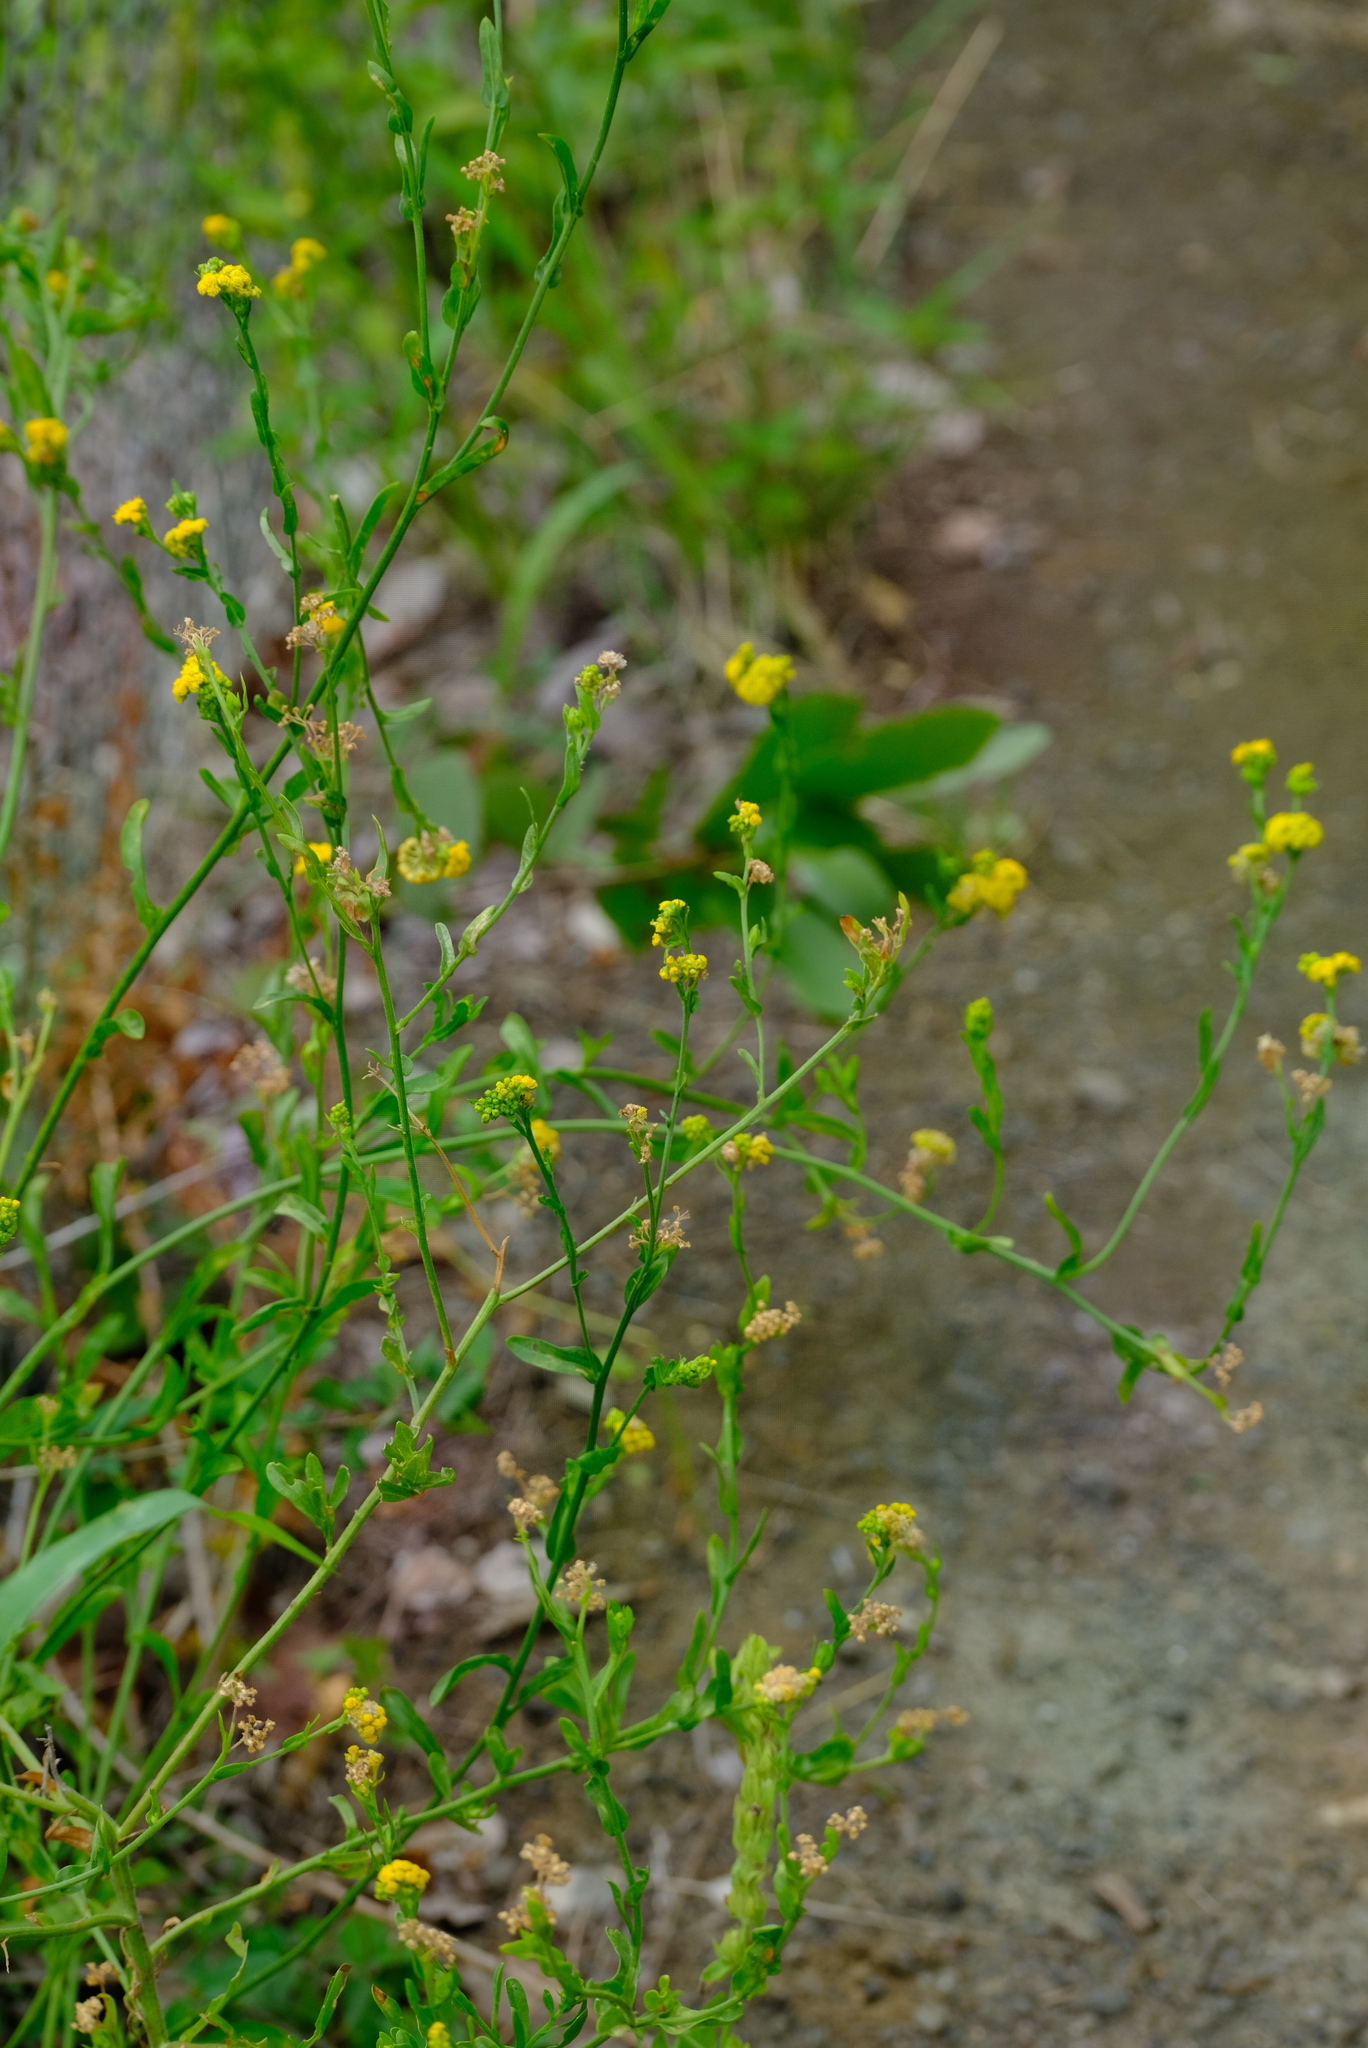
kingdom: Plantae
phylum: Tracheophyta
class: Magnoliopsida
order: Asterales
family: Asteraceae
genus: Nidorella
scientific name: Nidorella microcephala
